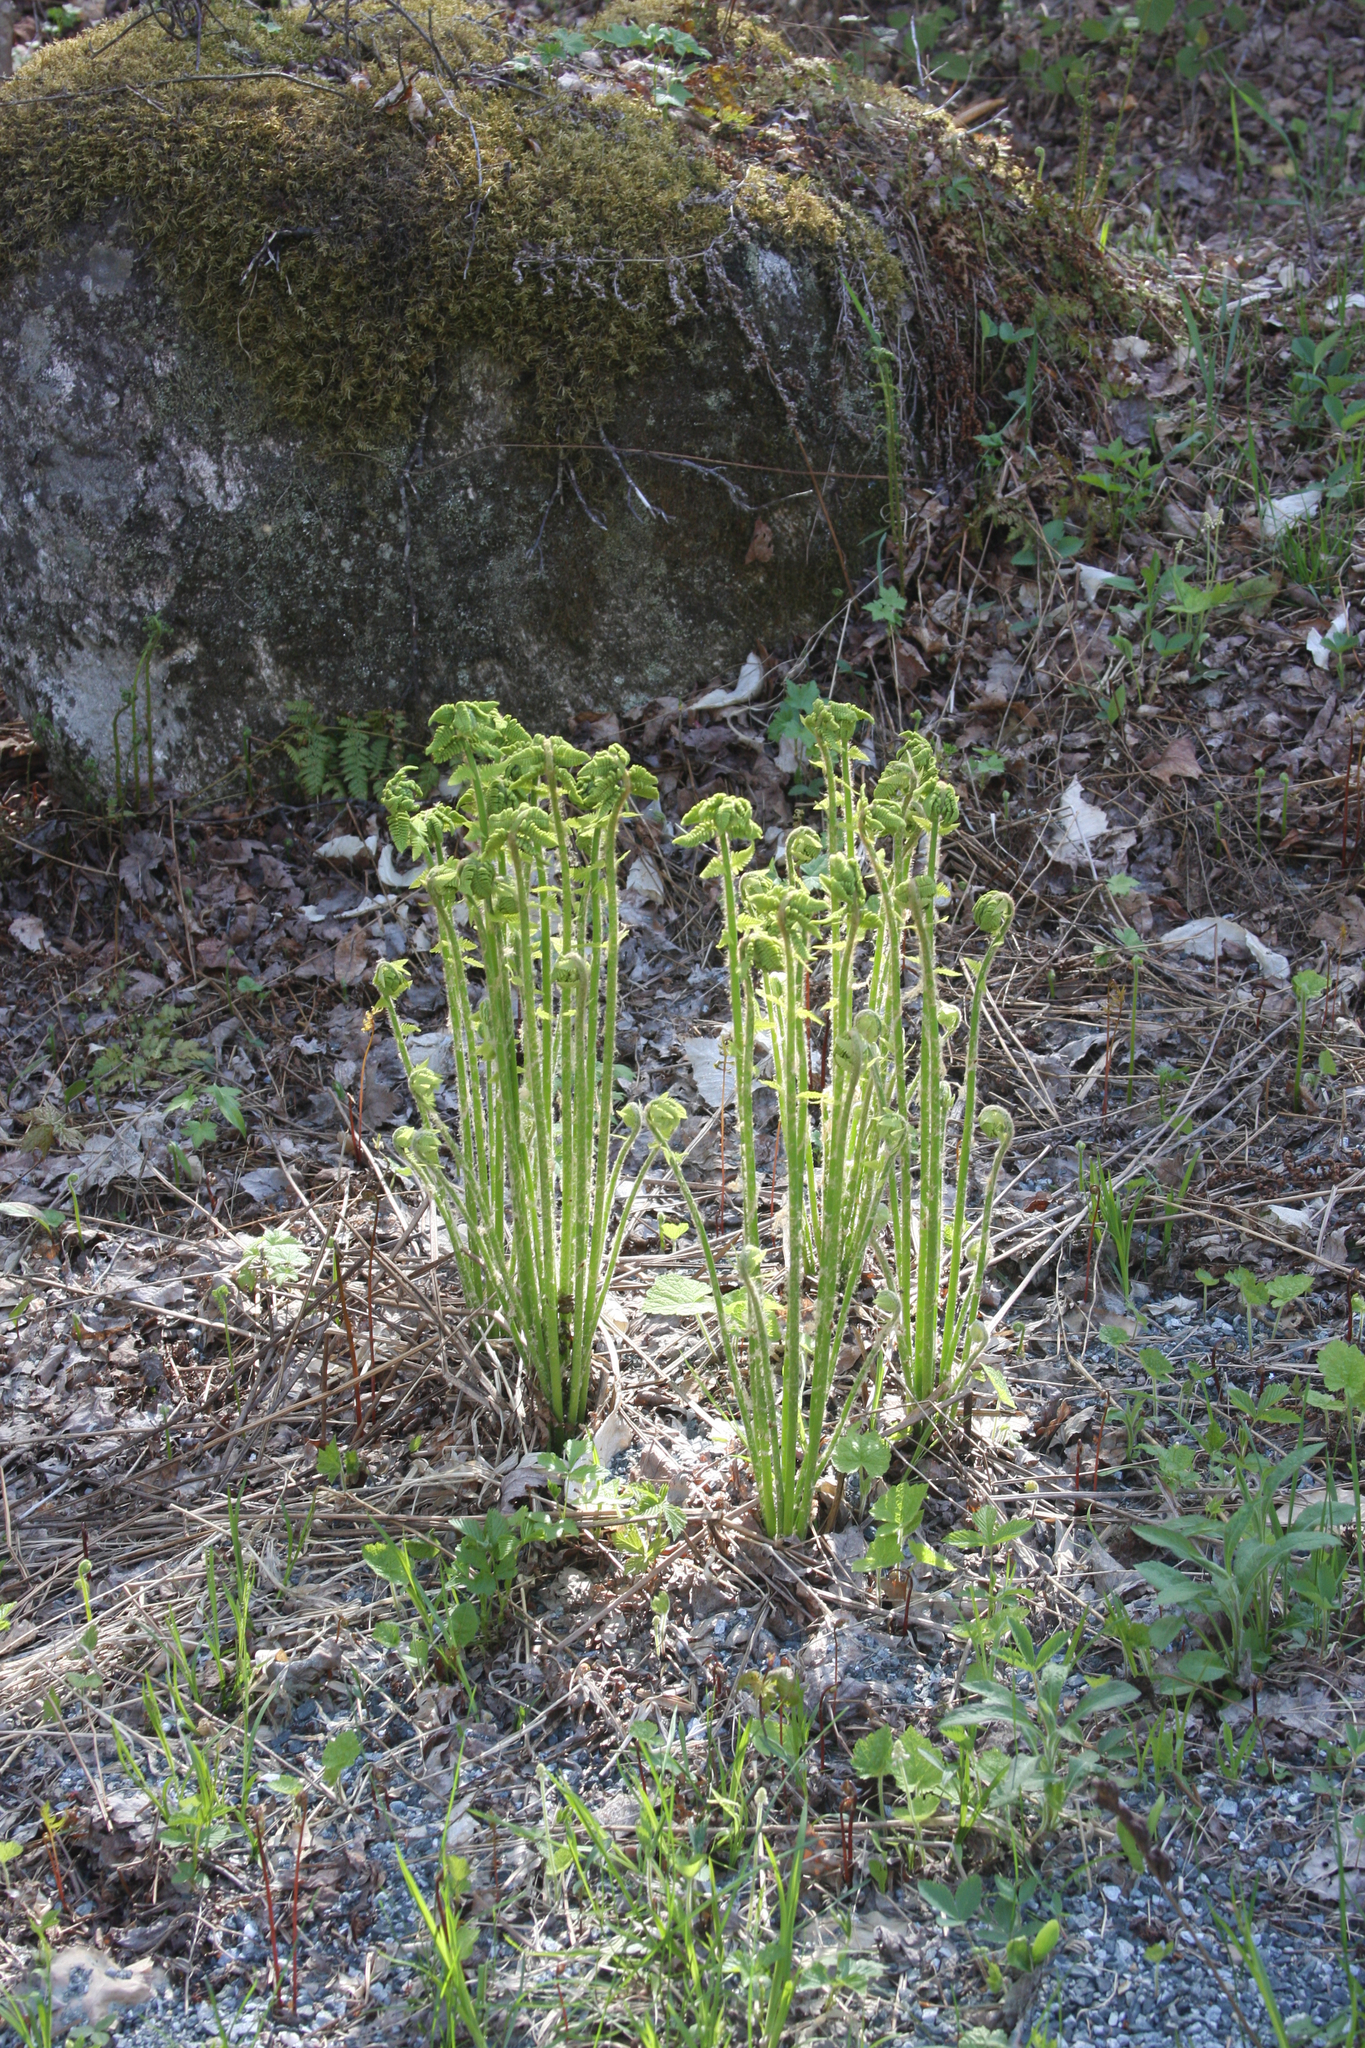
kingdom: Plantae
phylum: Tracheophyta
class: Polypodiopsida
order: Osmundales
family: Osmundaceae
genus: Claytosmunda
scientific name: Claytosmunda claytoniana
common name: Clayton's fern
